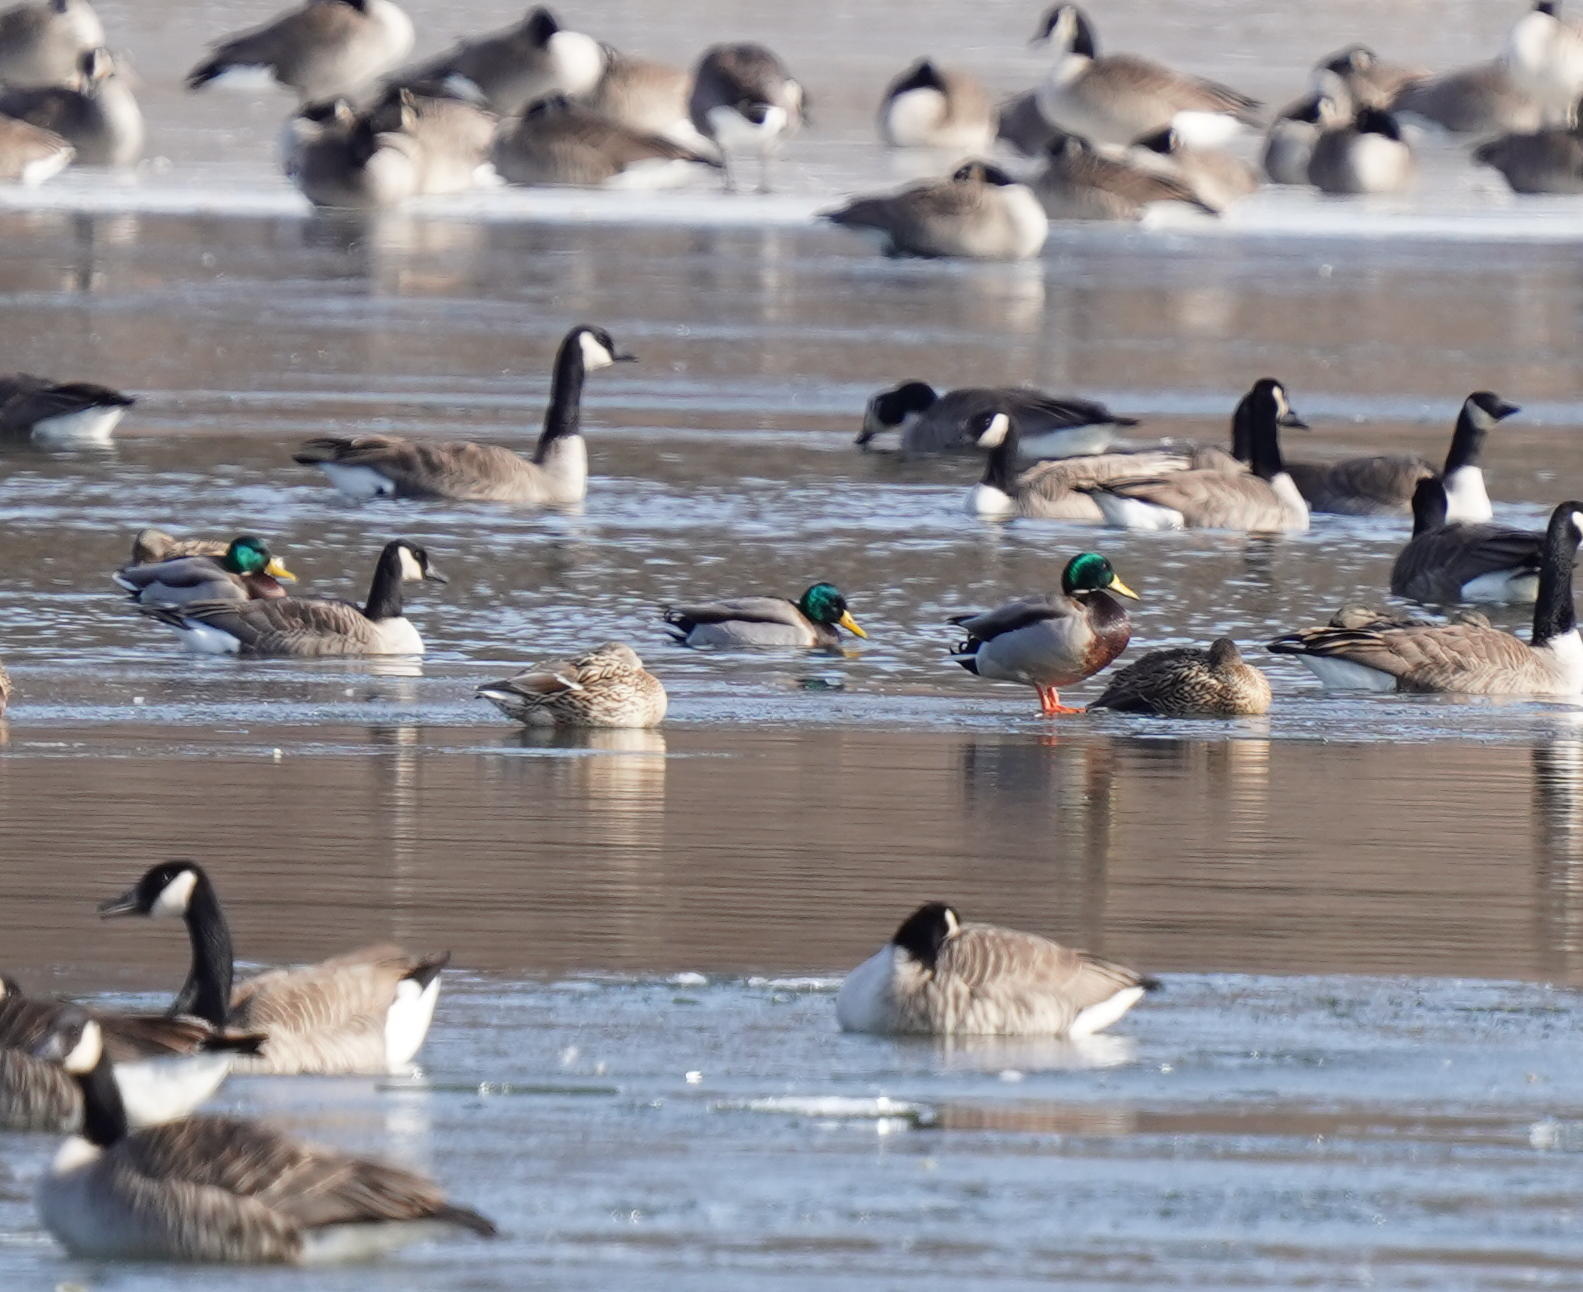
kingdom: Animalia
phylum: Chordata
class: Aves
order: Anseriformes
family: Anatidae
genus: Anas
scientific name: Anas platyrhynchos
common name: Mallard
